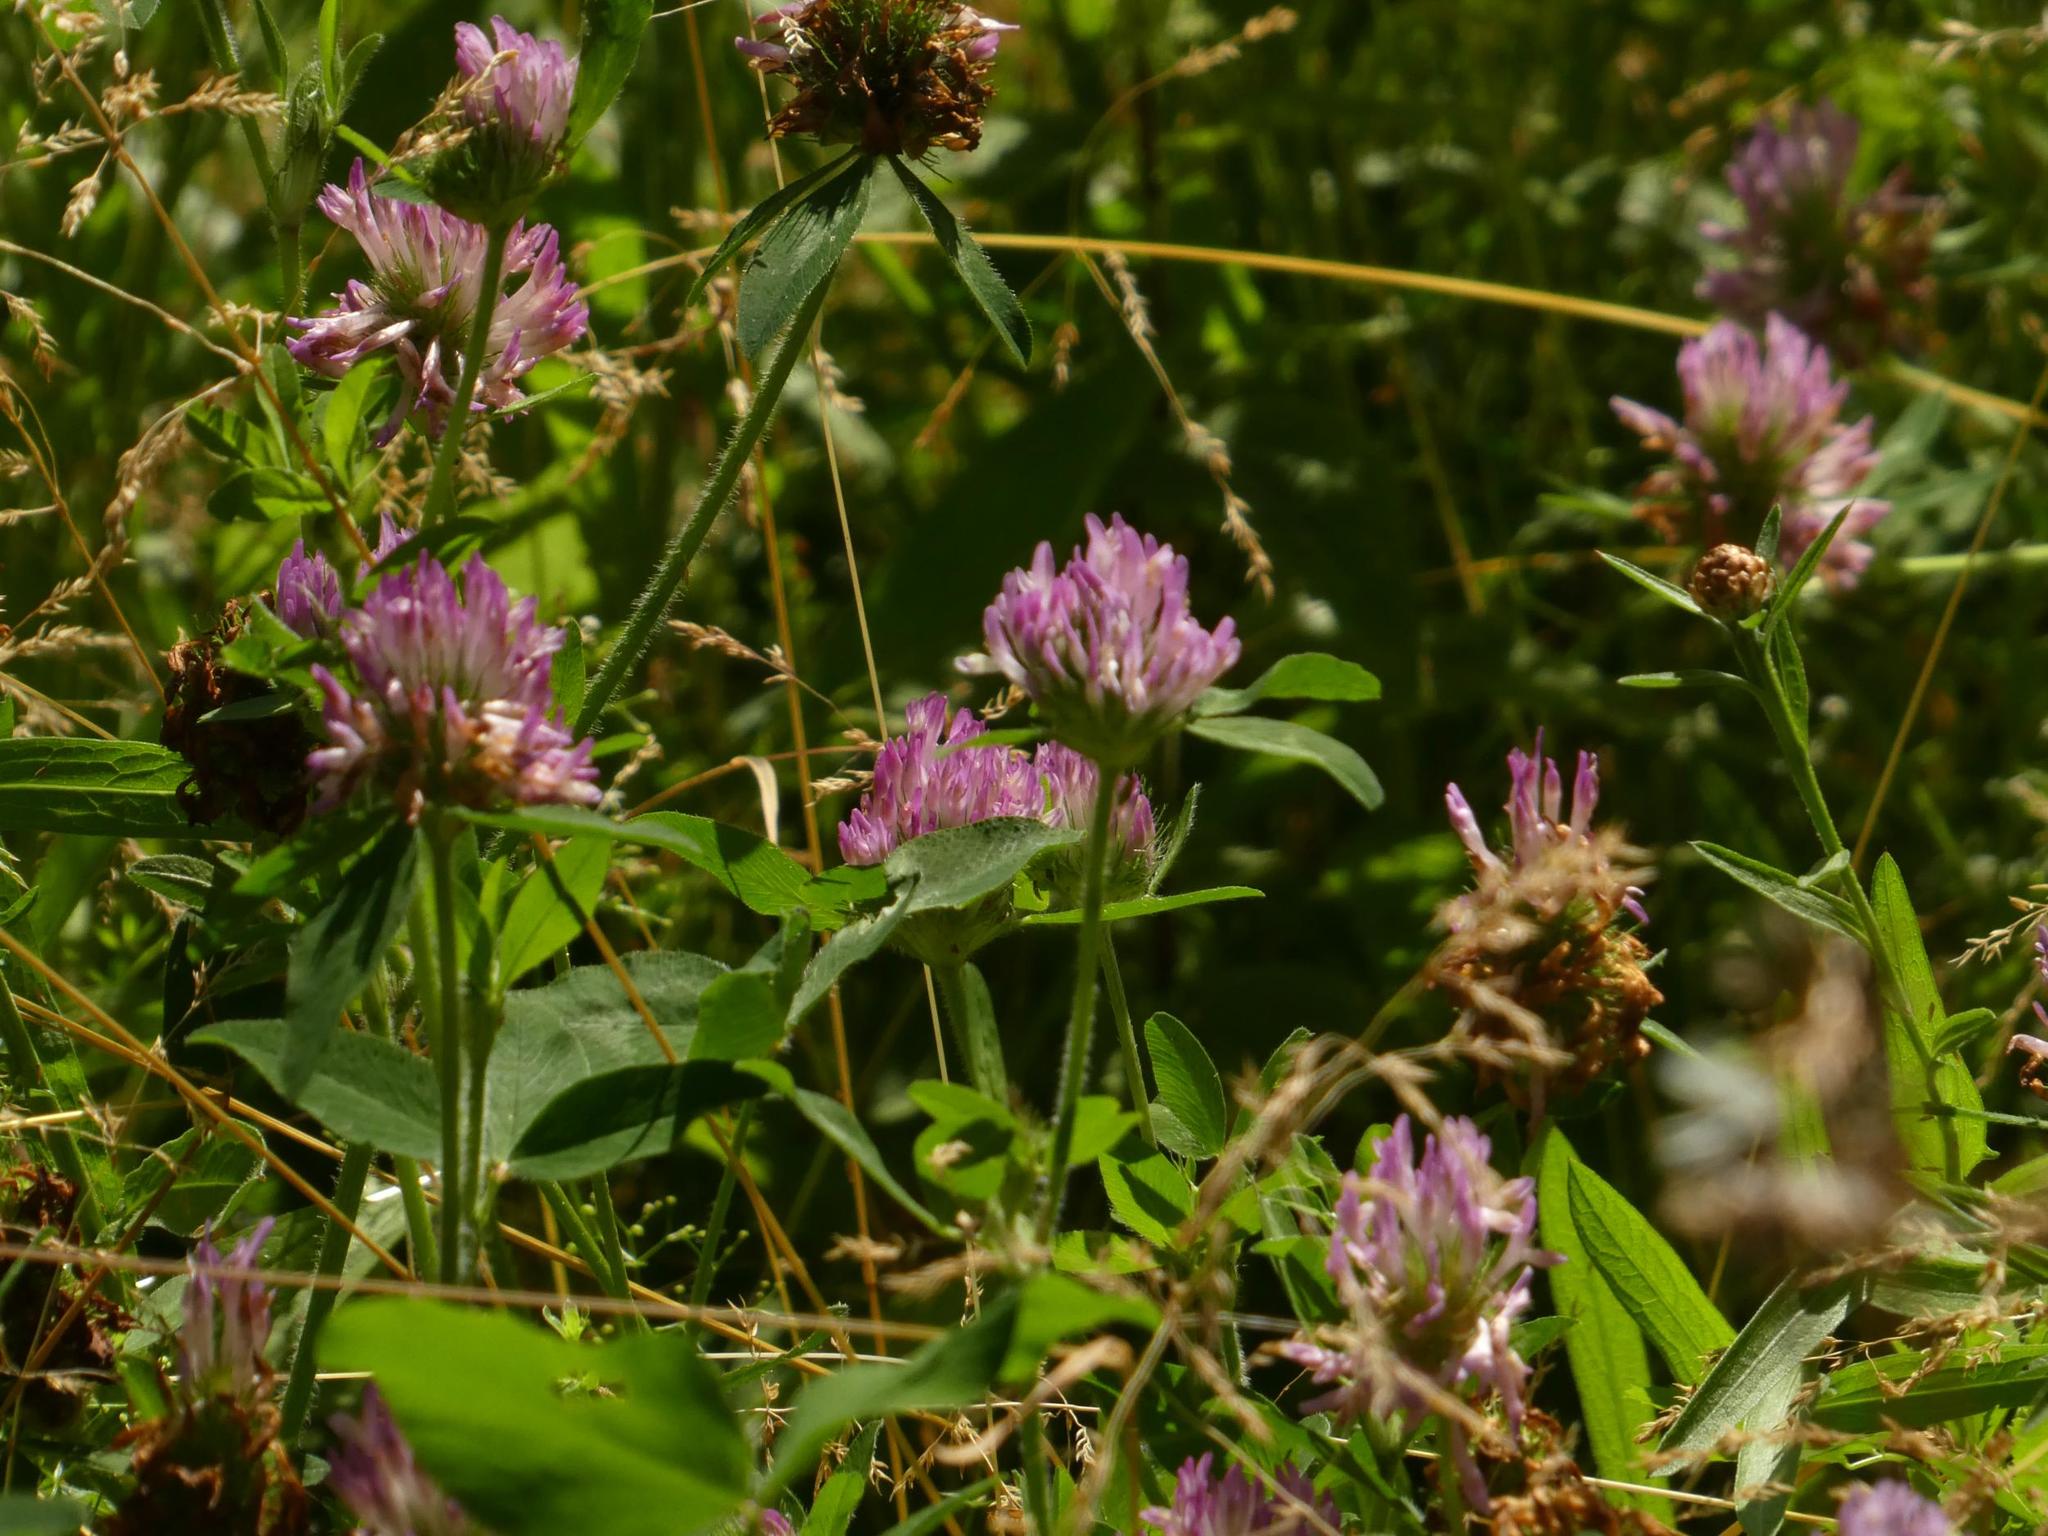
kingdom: Plantae
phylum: Tracheophyta
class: Magnoliopsida
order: Fabales
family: Fabaceae
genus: Trifolium
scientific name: Trifolium pratense
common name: Red clover
